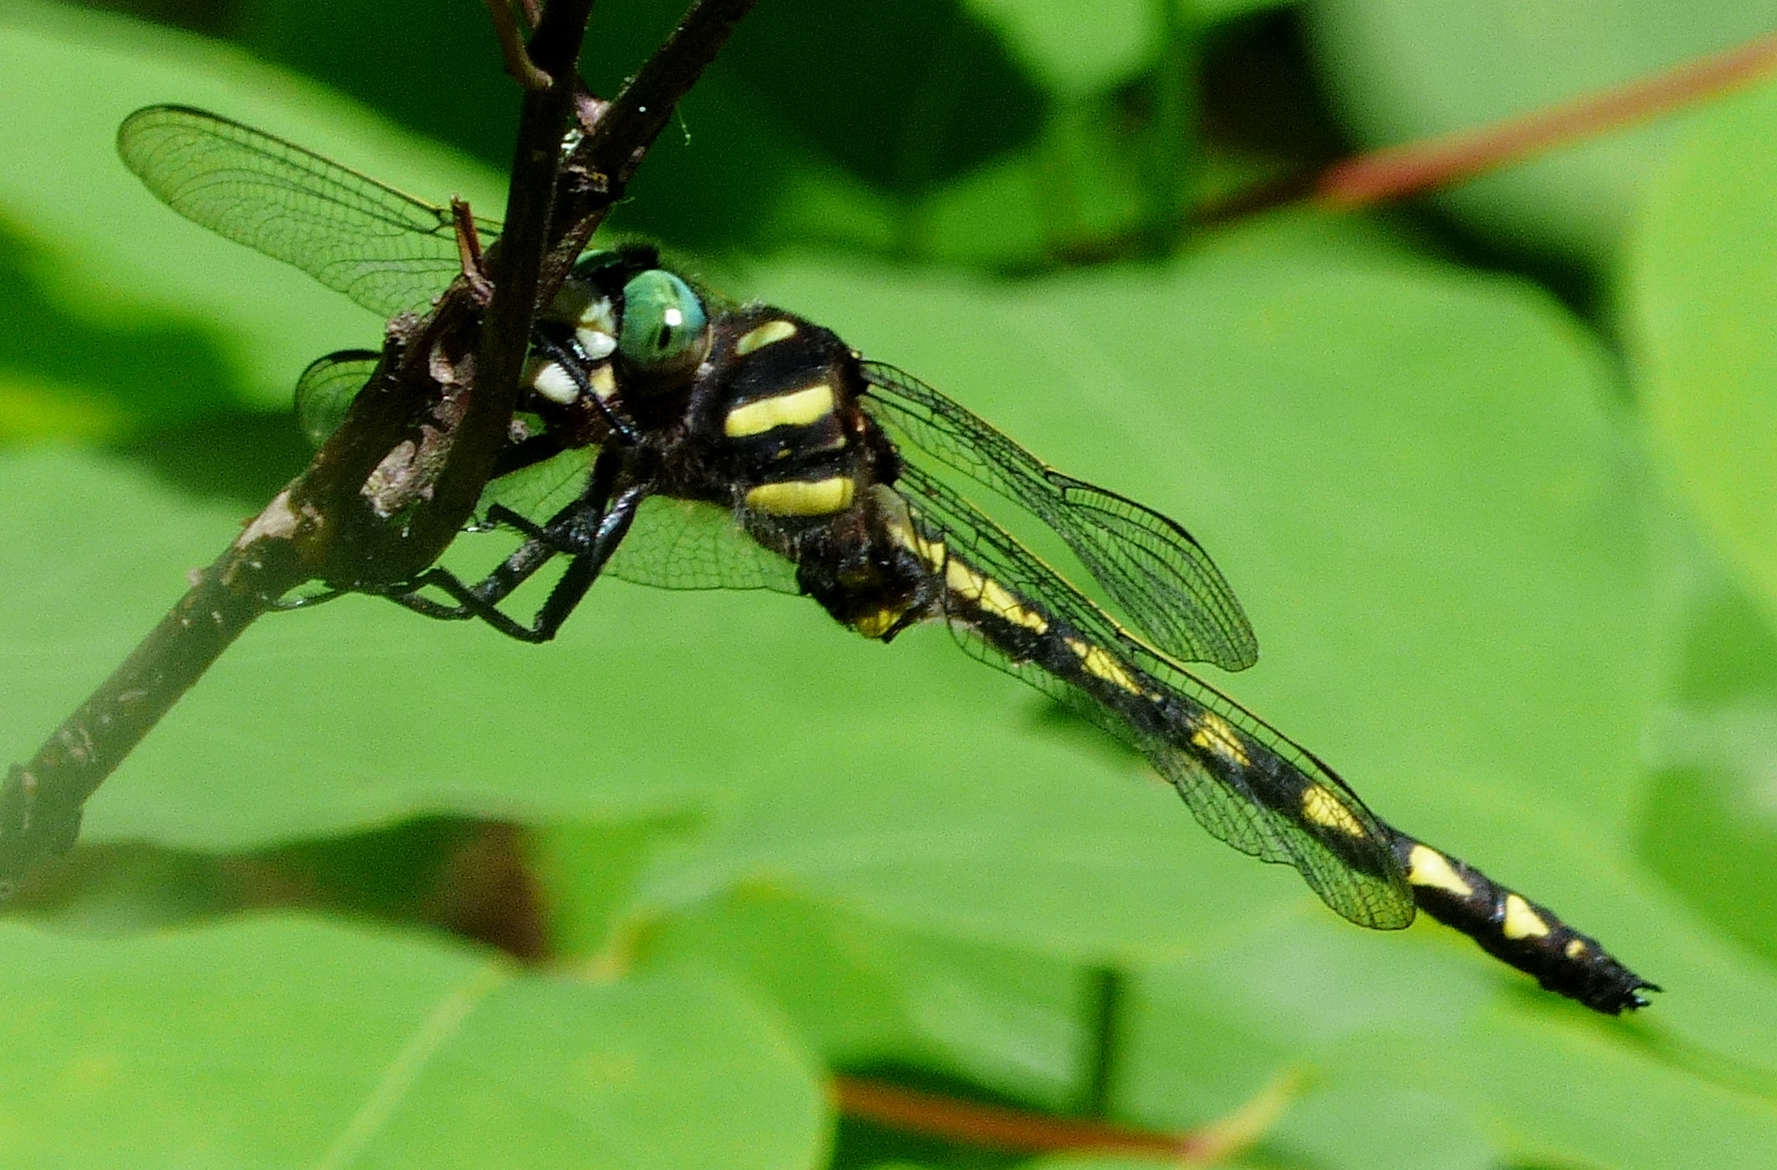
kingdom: Animalia
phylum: Arthropoda
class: Insecta
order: Odonata
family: Cordulegastridae
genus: Cordulegaster
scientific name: Cordulegaster diastatops
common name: Delta-spotted spiketail
